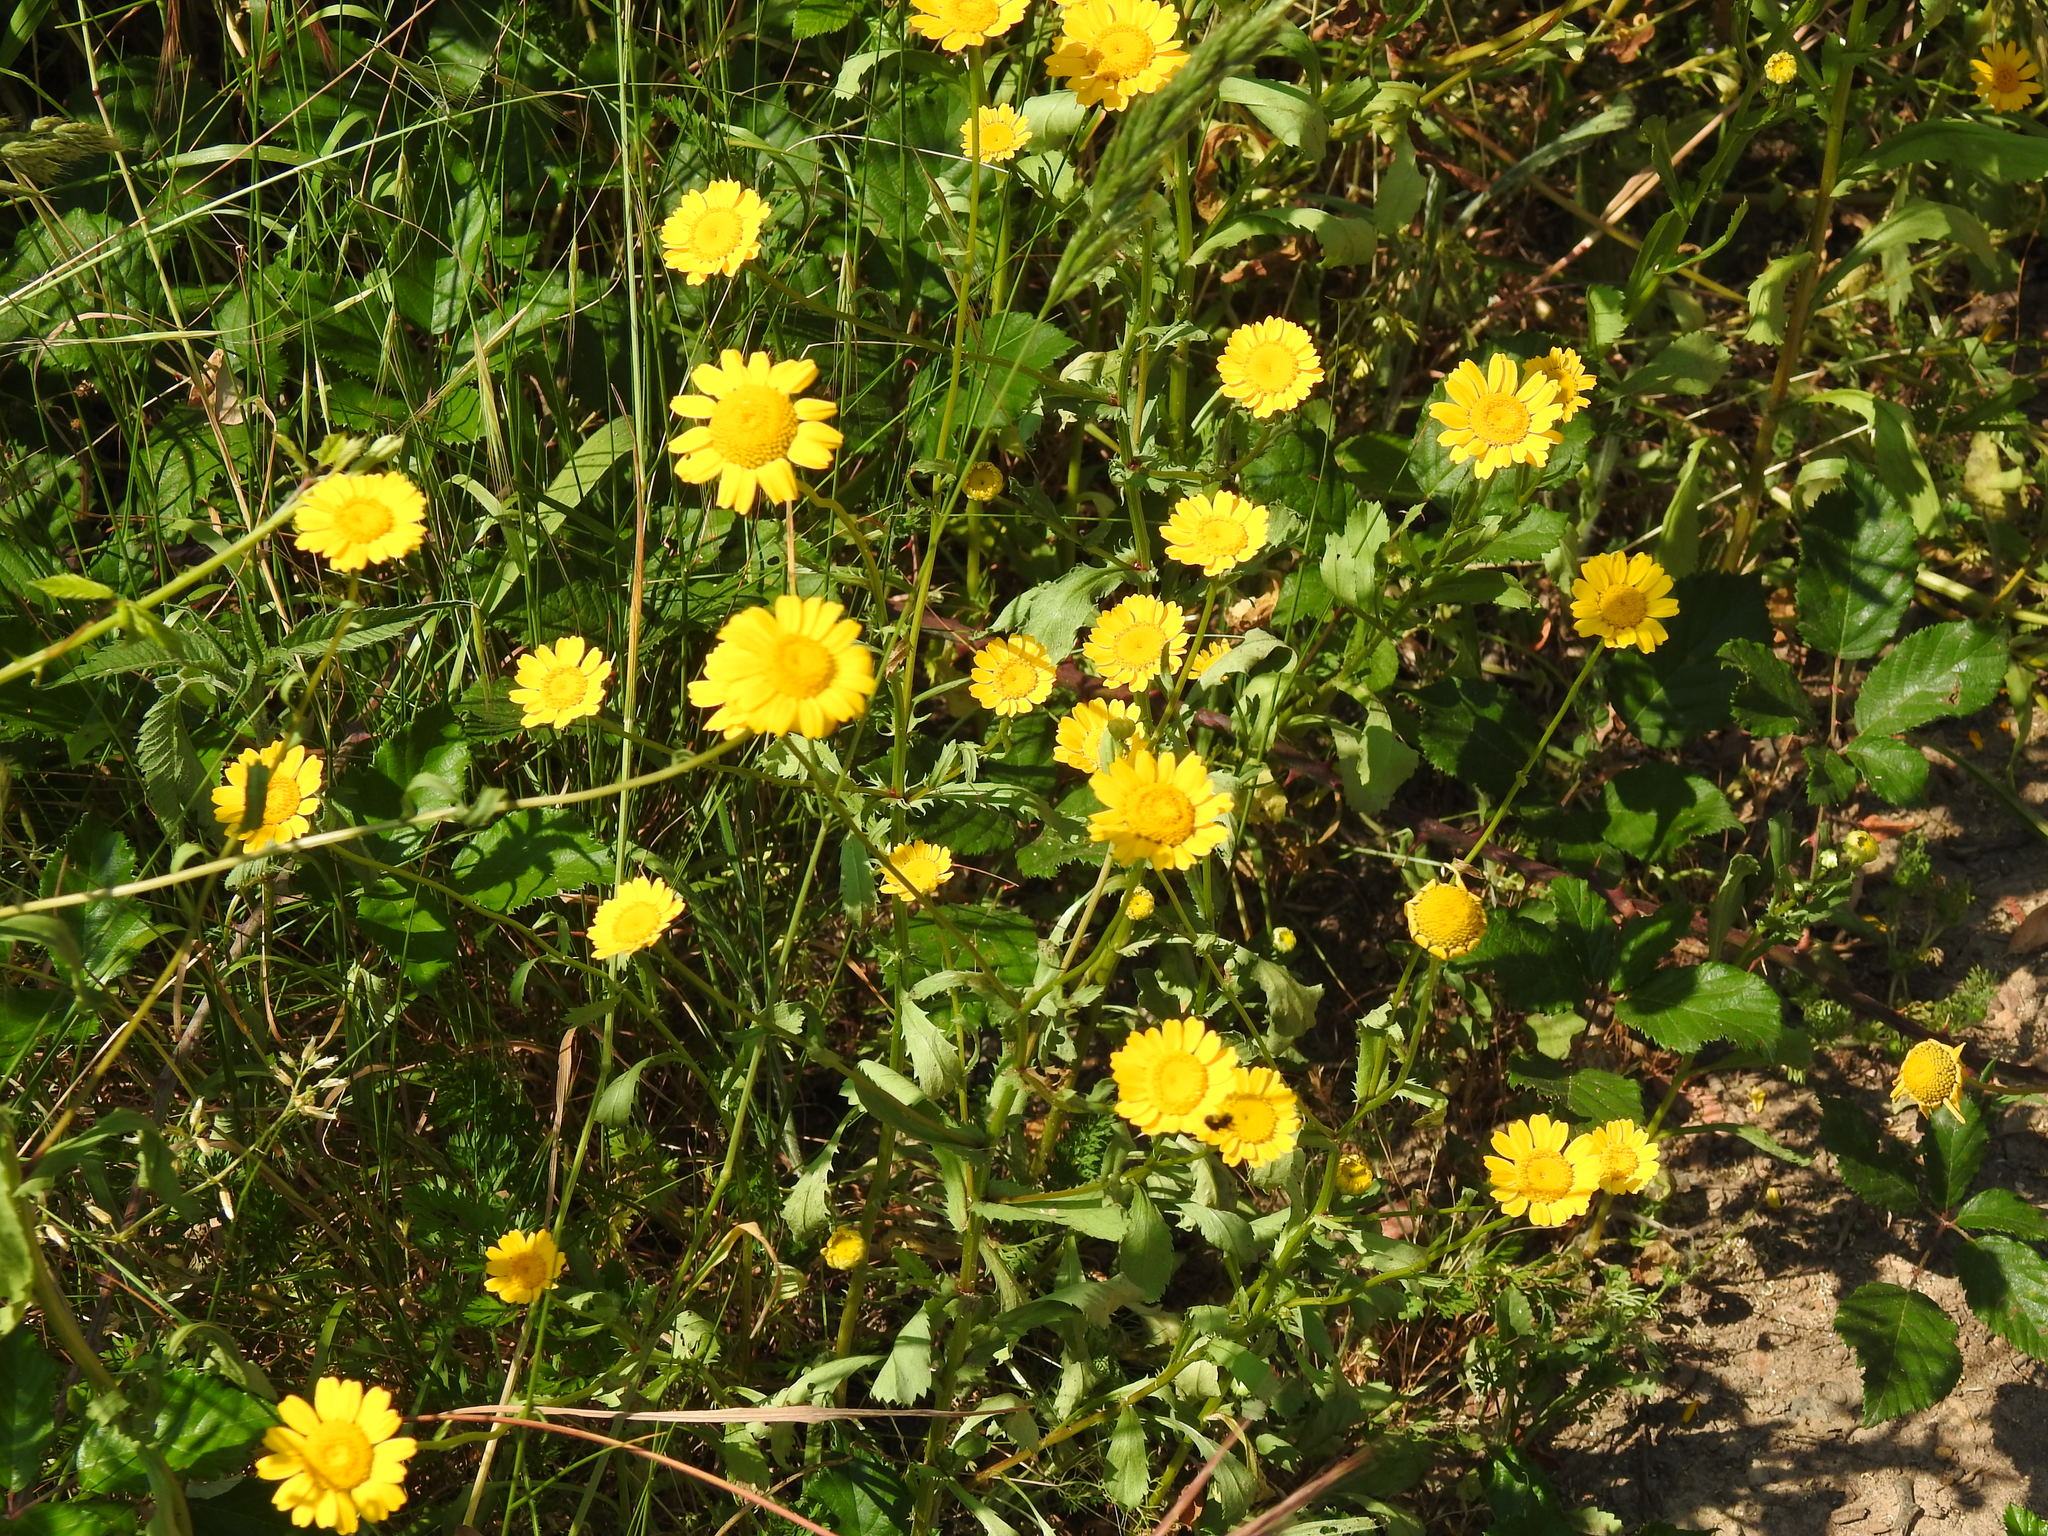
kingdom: Plantae
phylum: Tracheophyta
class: Magnoliopsida
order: Asterales
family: Asteraceae
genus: Coleostephus
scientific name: Coleostephus myconis
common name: Mediterranean marigold
